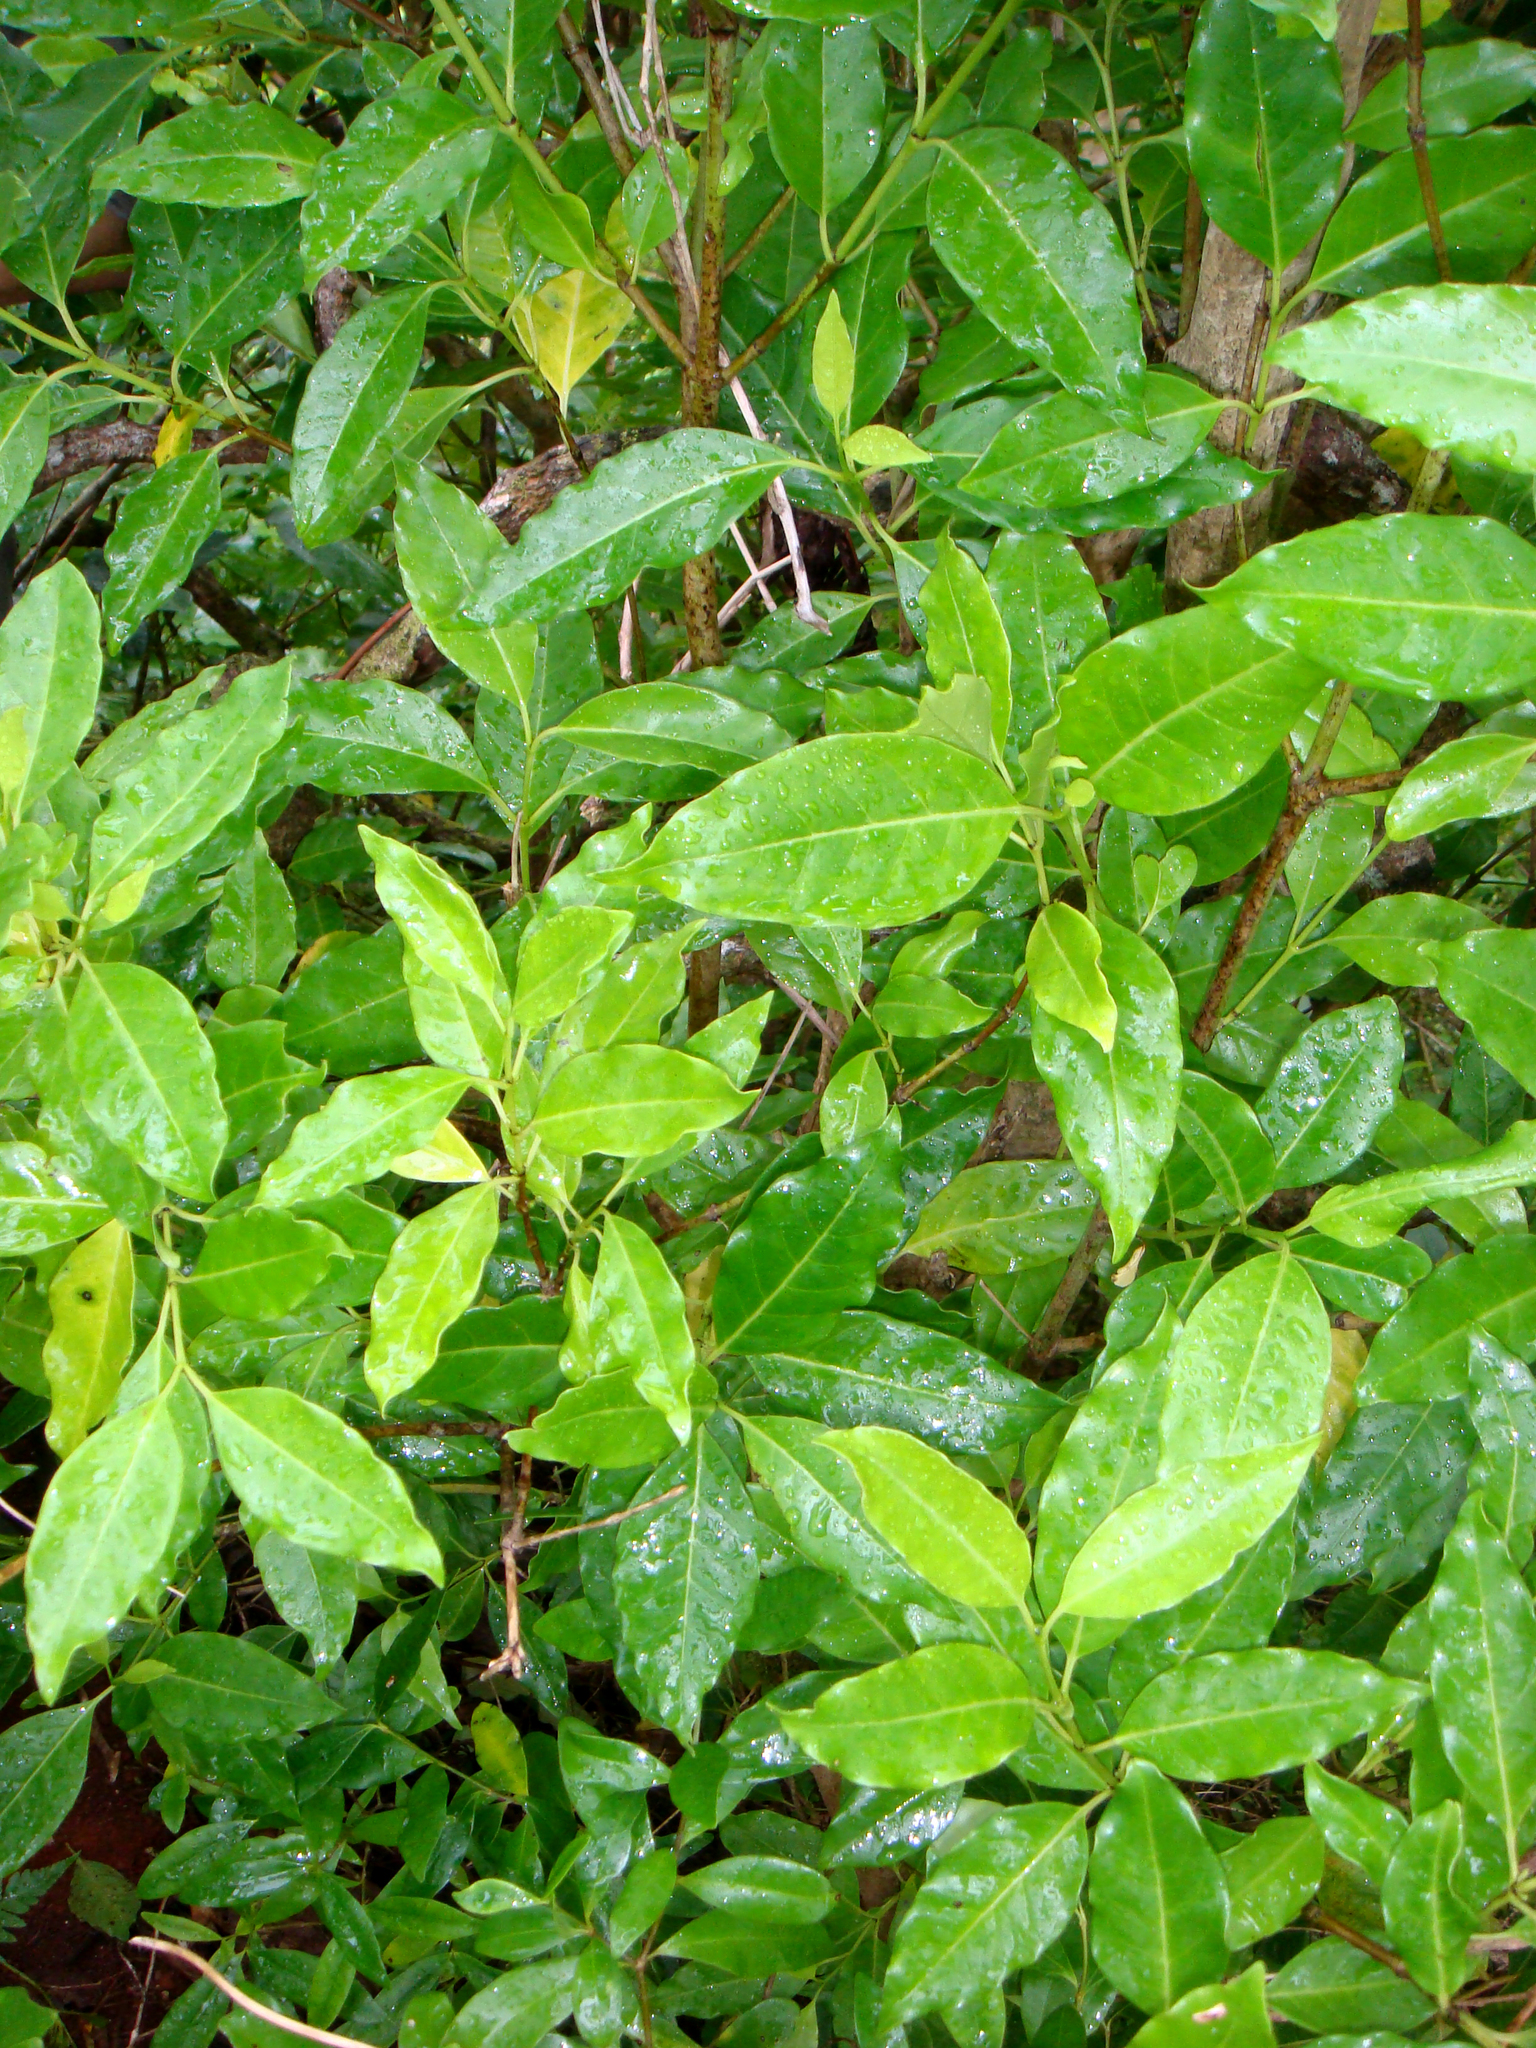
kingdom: Plantae
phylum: Tracheophyta
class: Magnoliopsida
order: Gentianales
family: Loganiaceae
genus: Geniostoma
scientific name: Geniostoma rarotongense
